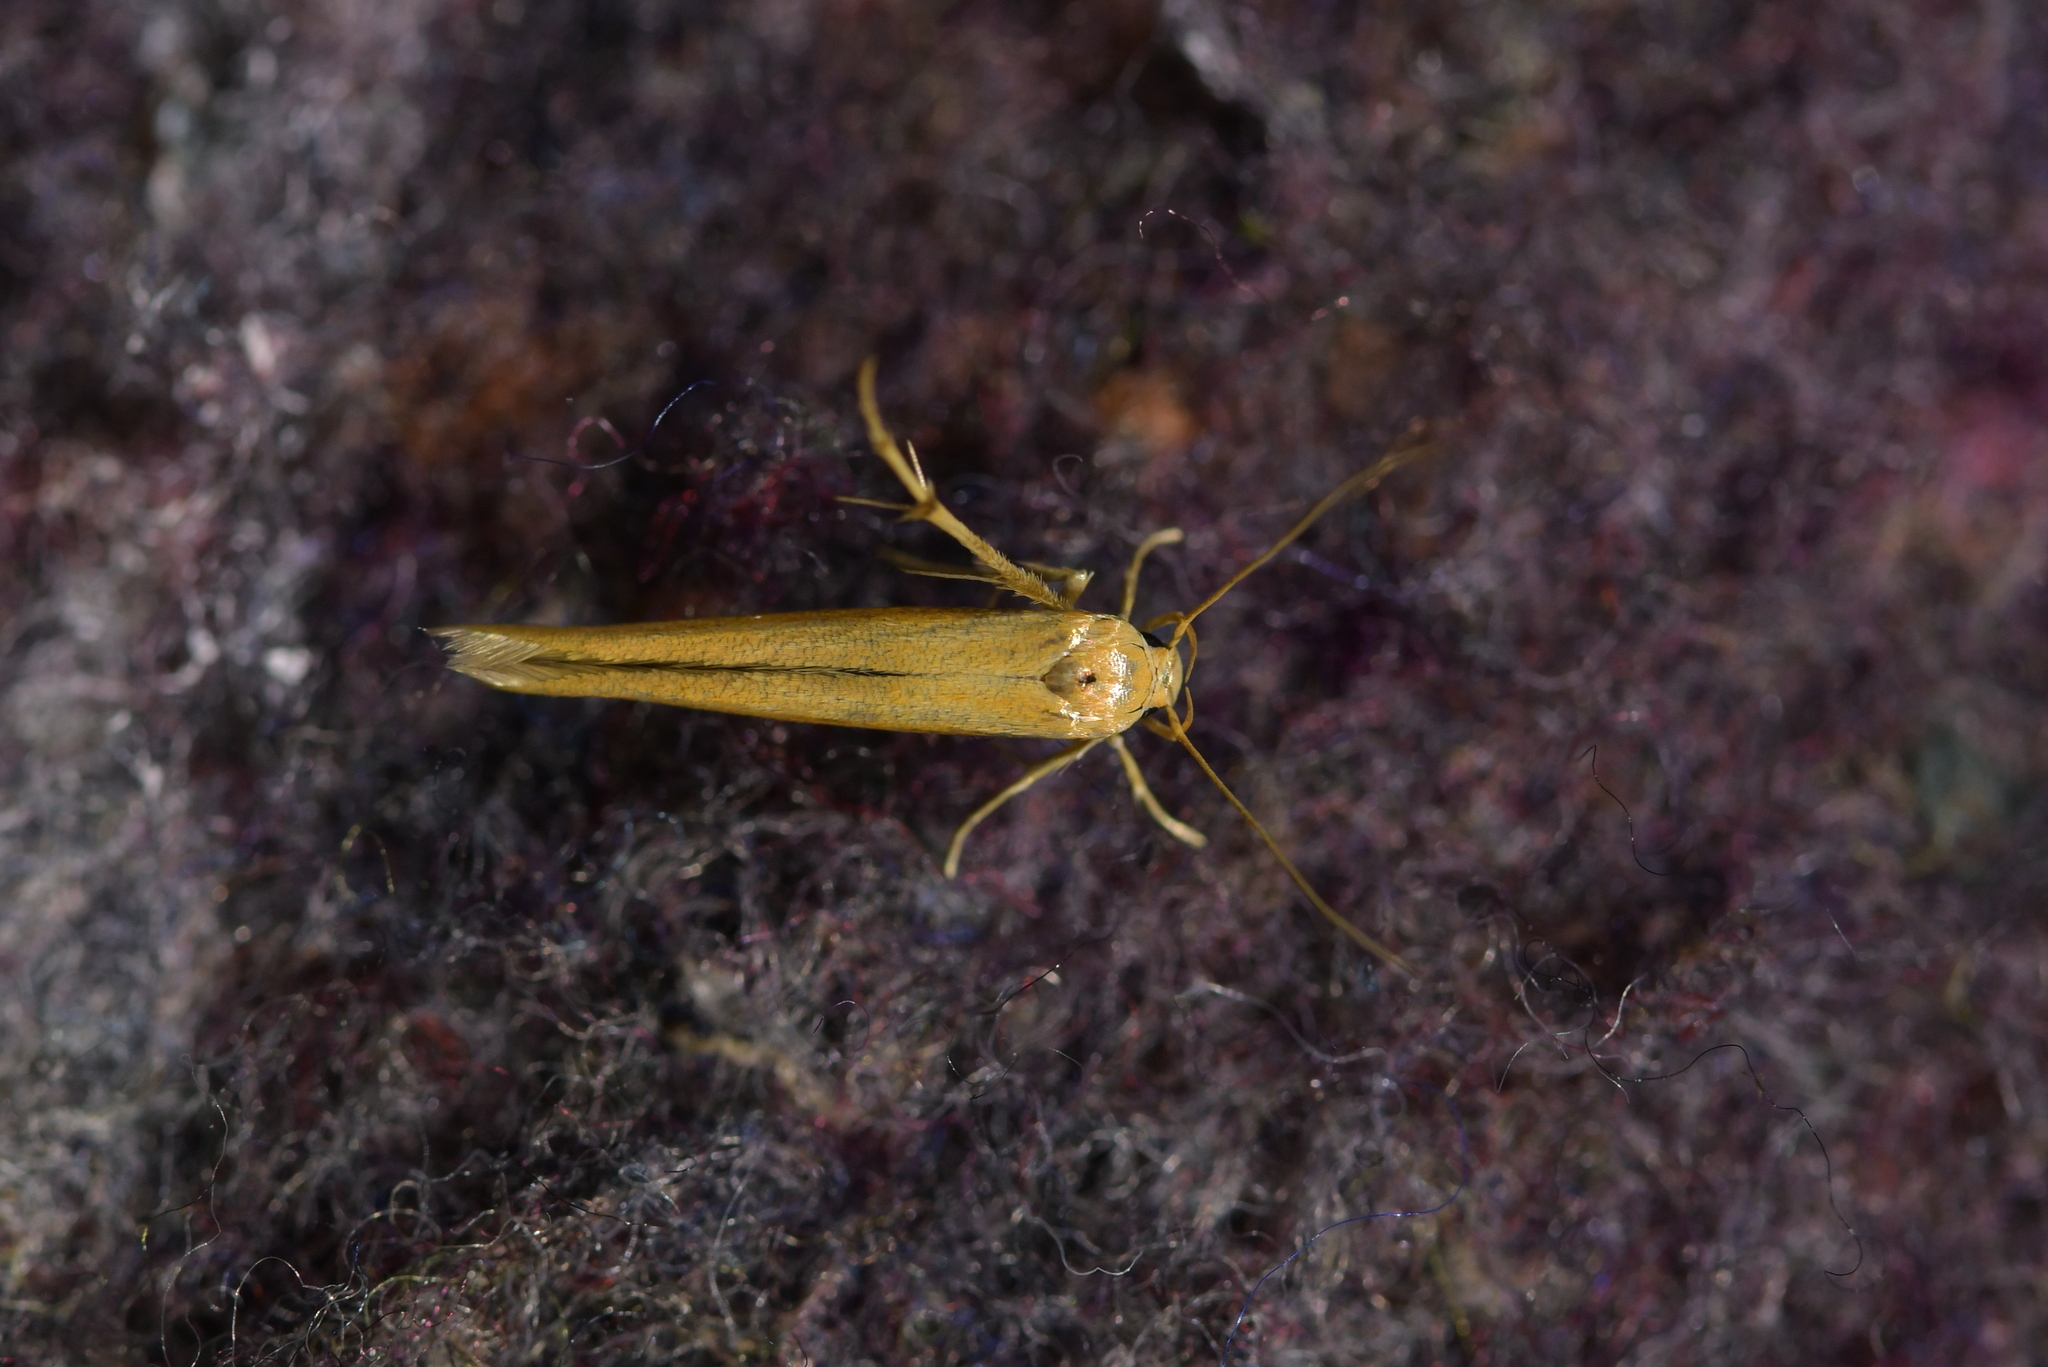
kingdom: Animalia
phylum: Arthropoda
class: Insecta
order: Lepidoptera
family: Stathmopodidae
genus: Stathmopoda
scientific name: Stathmopoda skelloni
